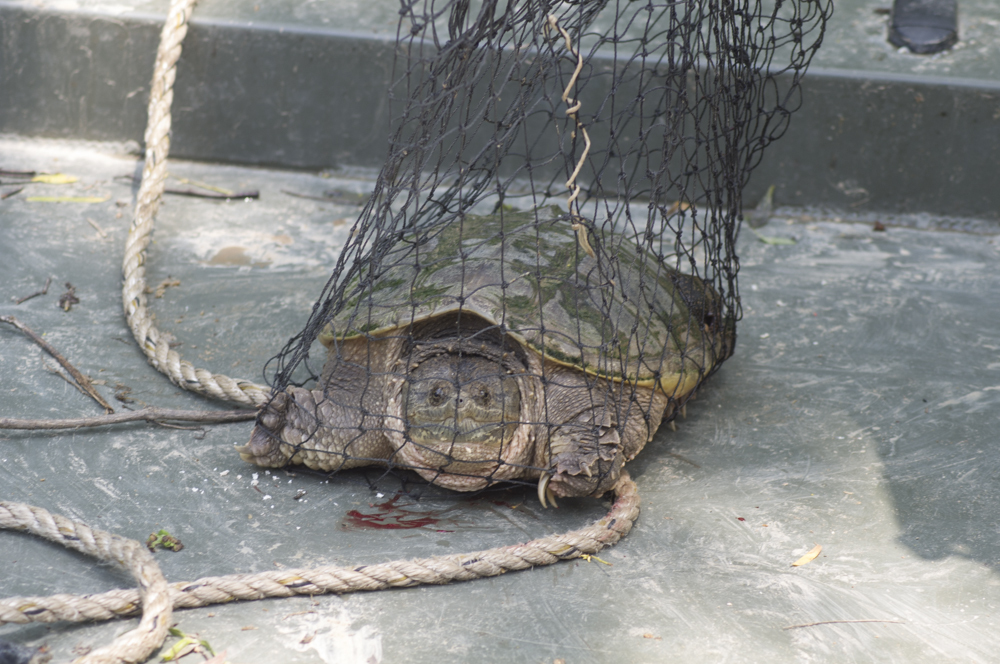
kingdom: Animalia
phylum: Chordata
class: Testudines
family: Chelydridae
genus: Chelydra
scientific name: Chelydra serpentina
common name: Common snapping turtle
